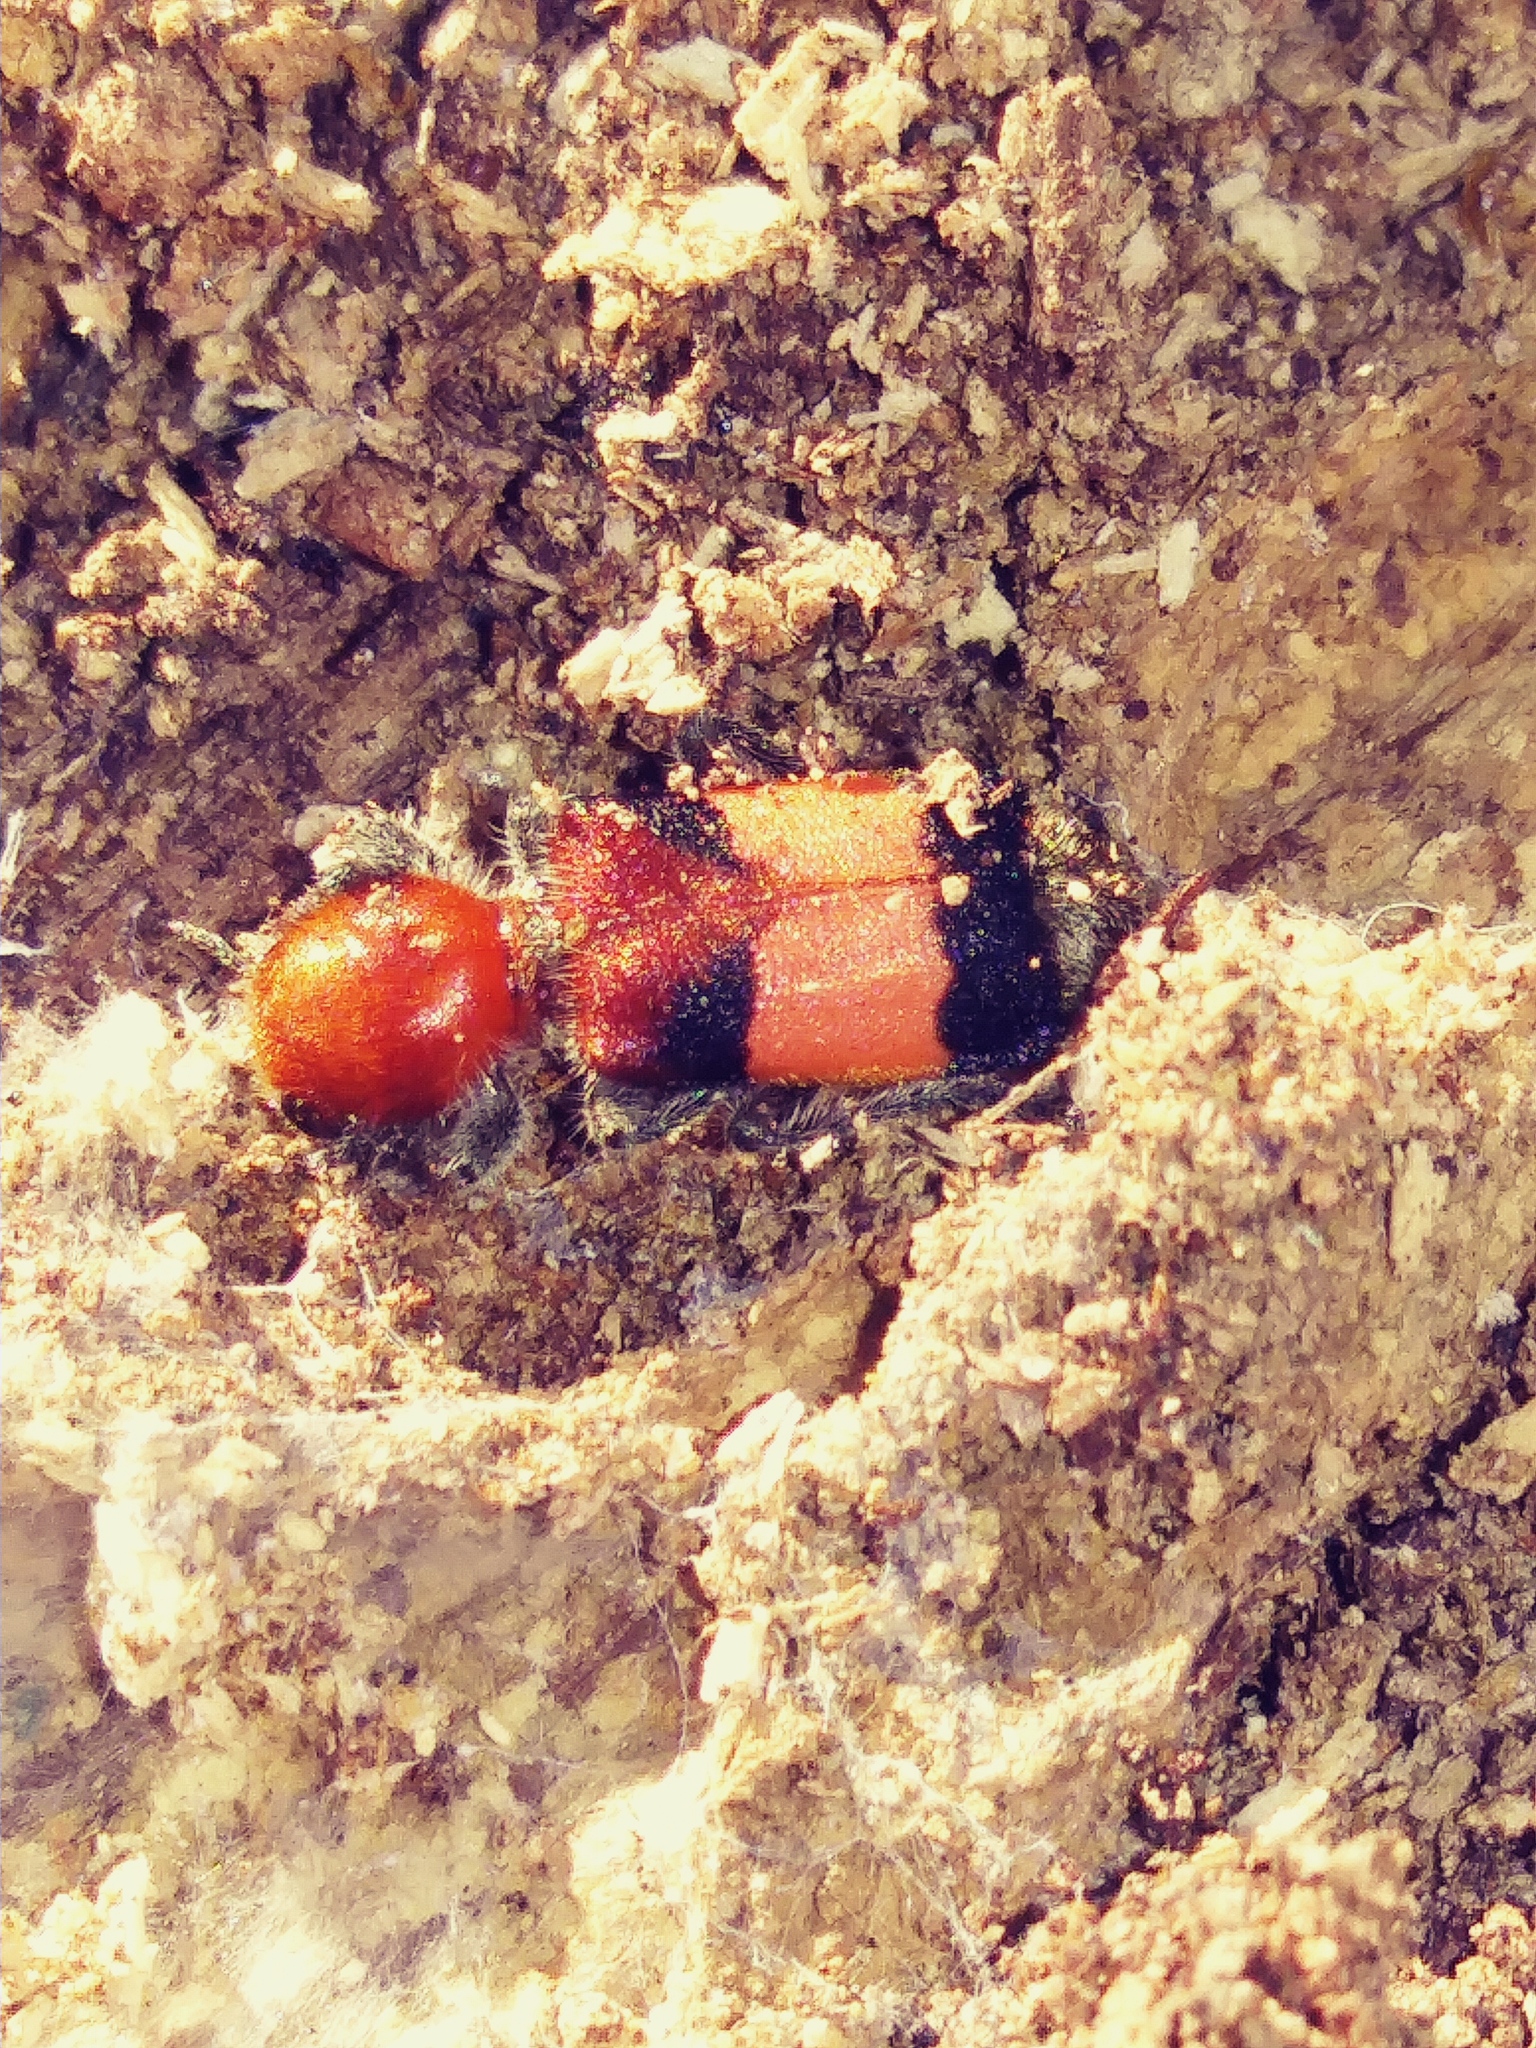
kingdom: Animalia
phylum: Arthropoda
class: Insecta
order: Coleoptera
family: Cleridae
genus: Enoclerus
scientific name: Enoclerus ichneumoneus
